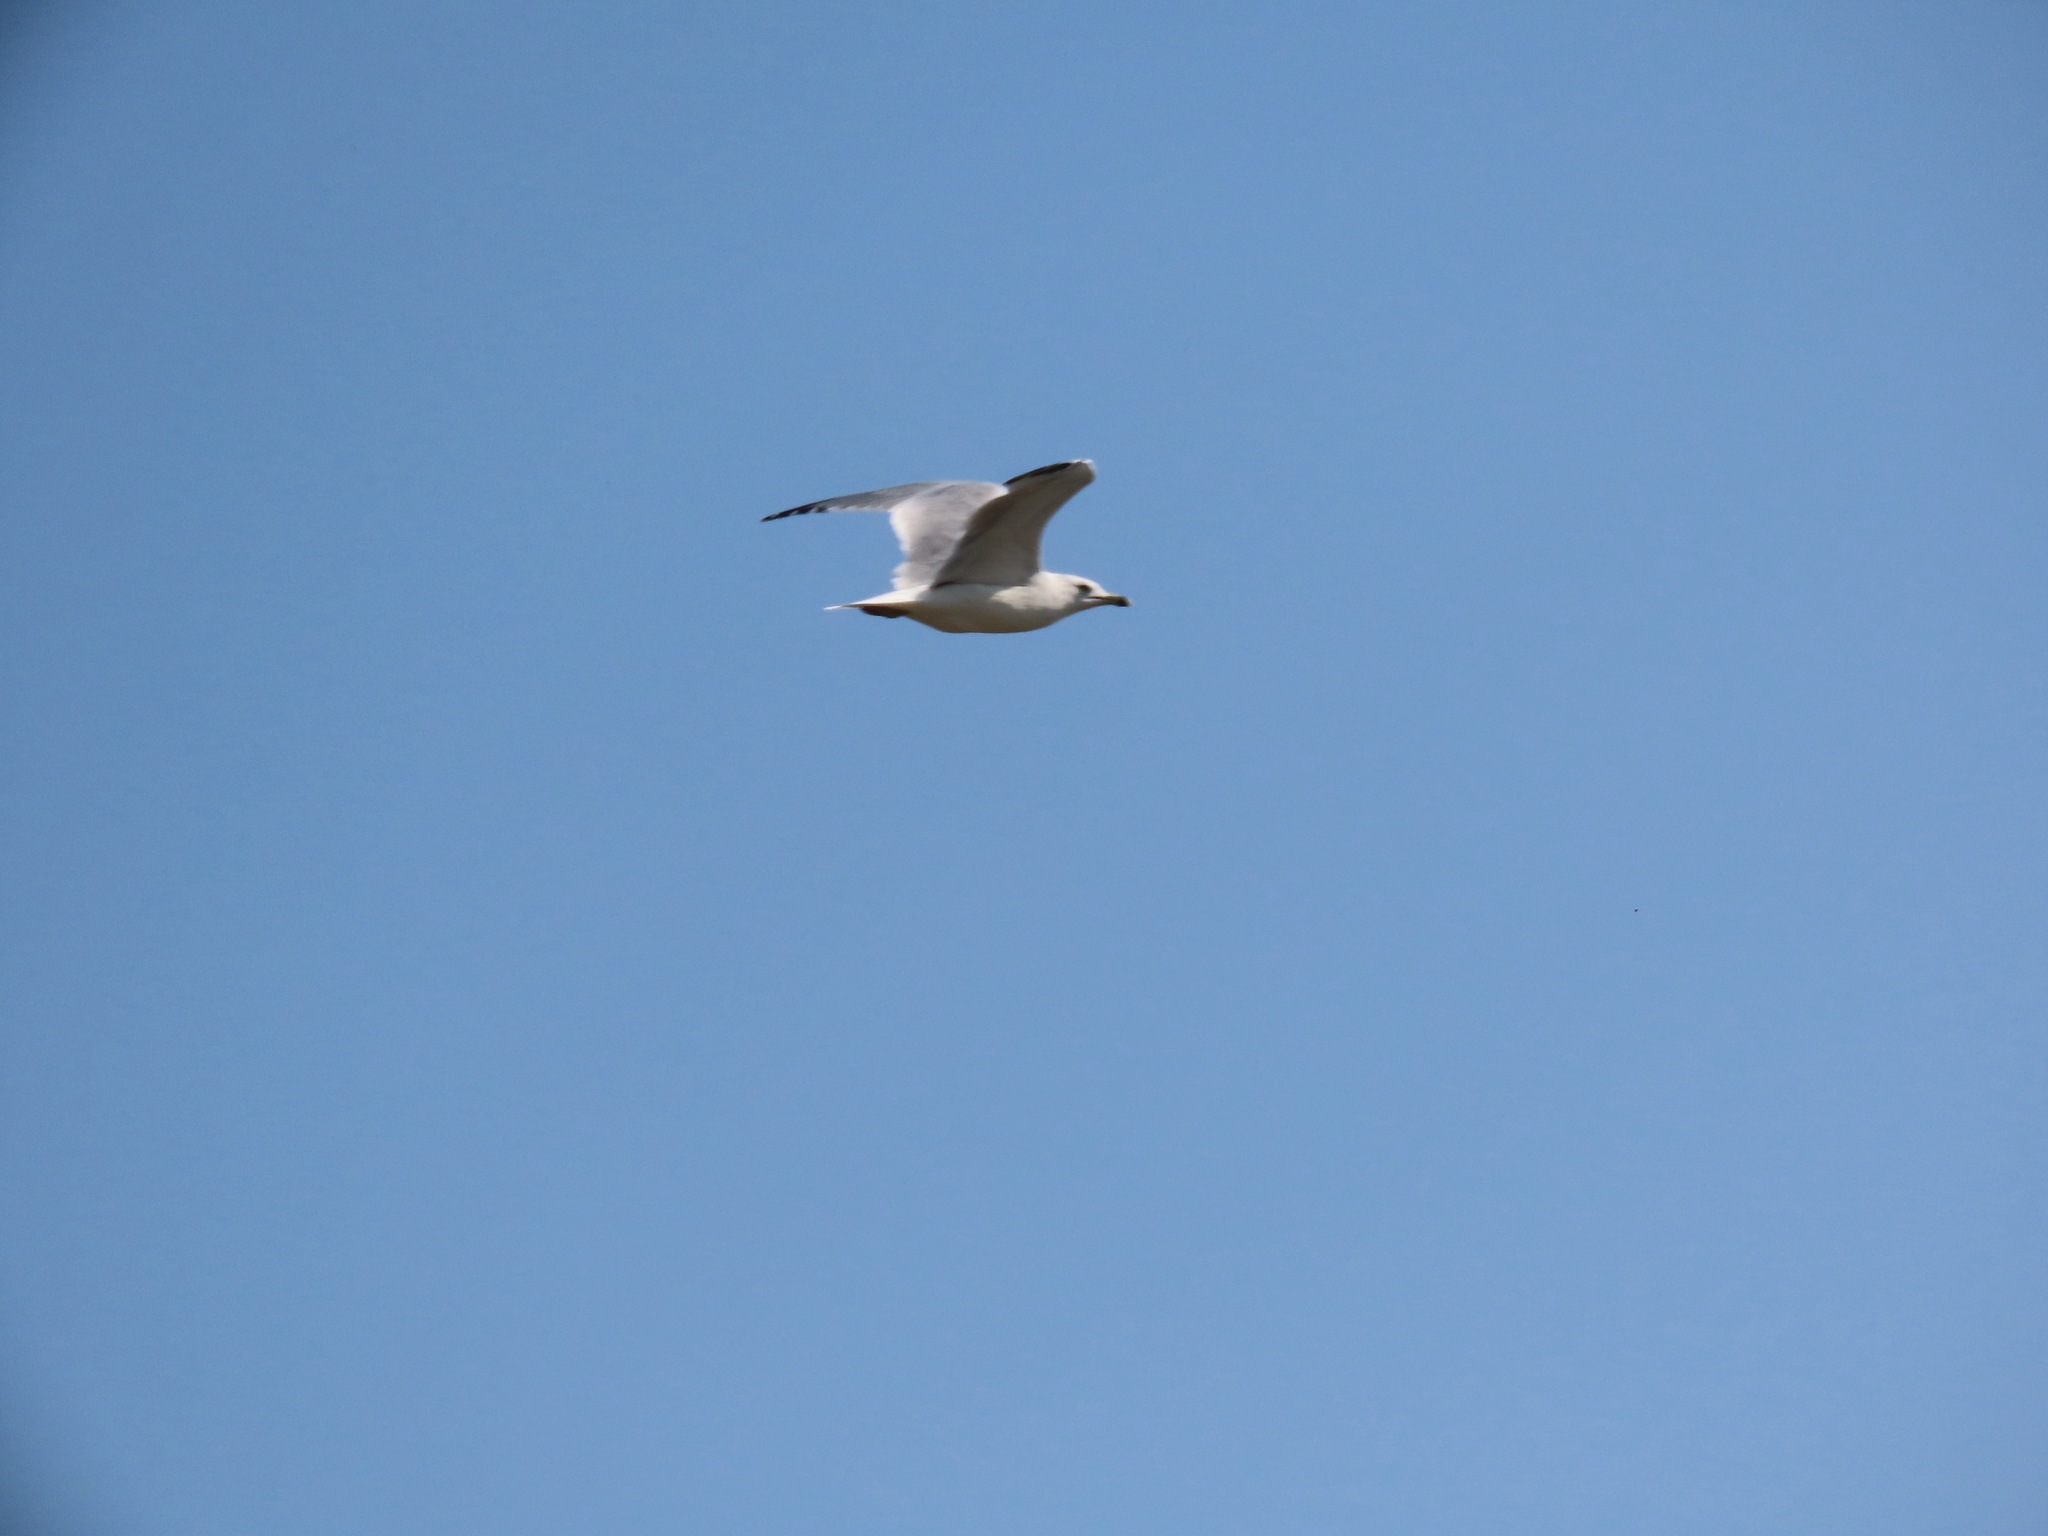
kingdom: Animalia
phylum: Chordata
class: Aves
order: Charadriiformes
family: Laridae
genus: Larus
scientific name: Larus delawarensis
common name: Ring-billed gull
